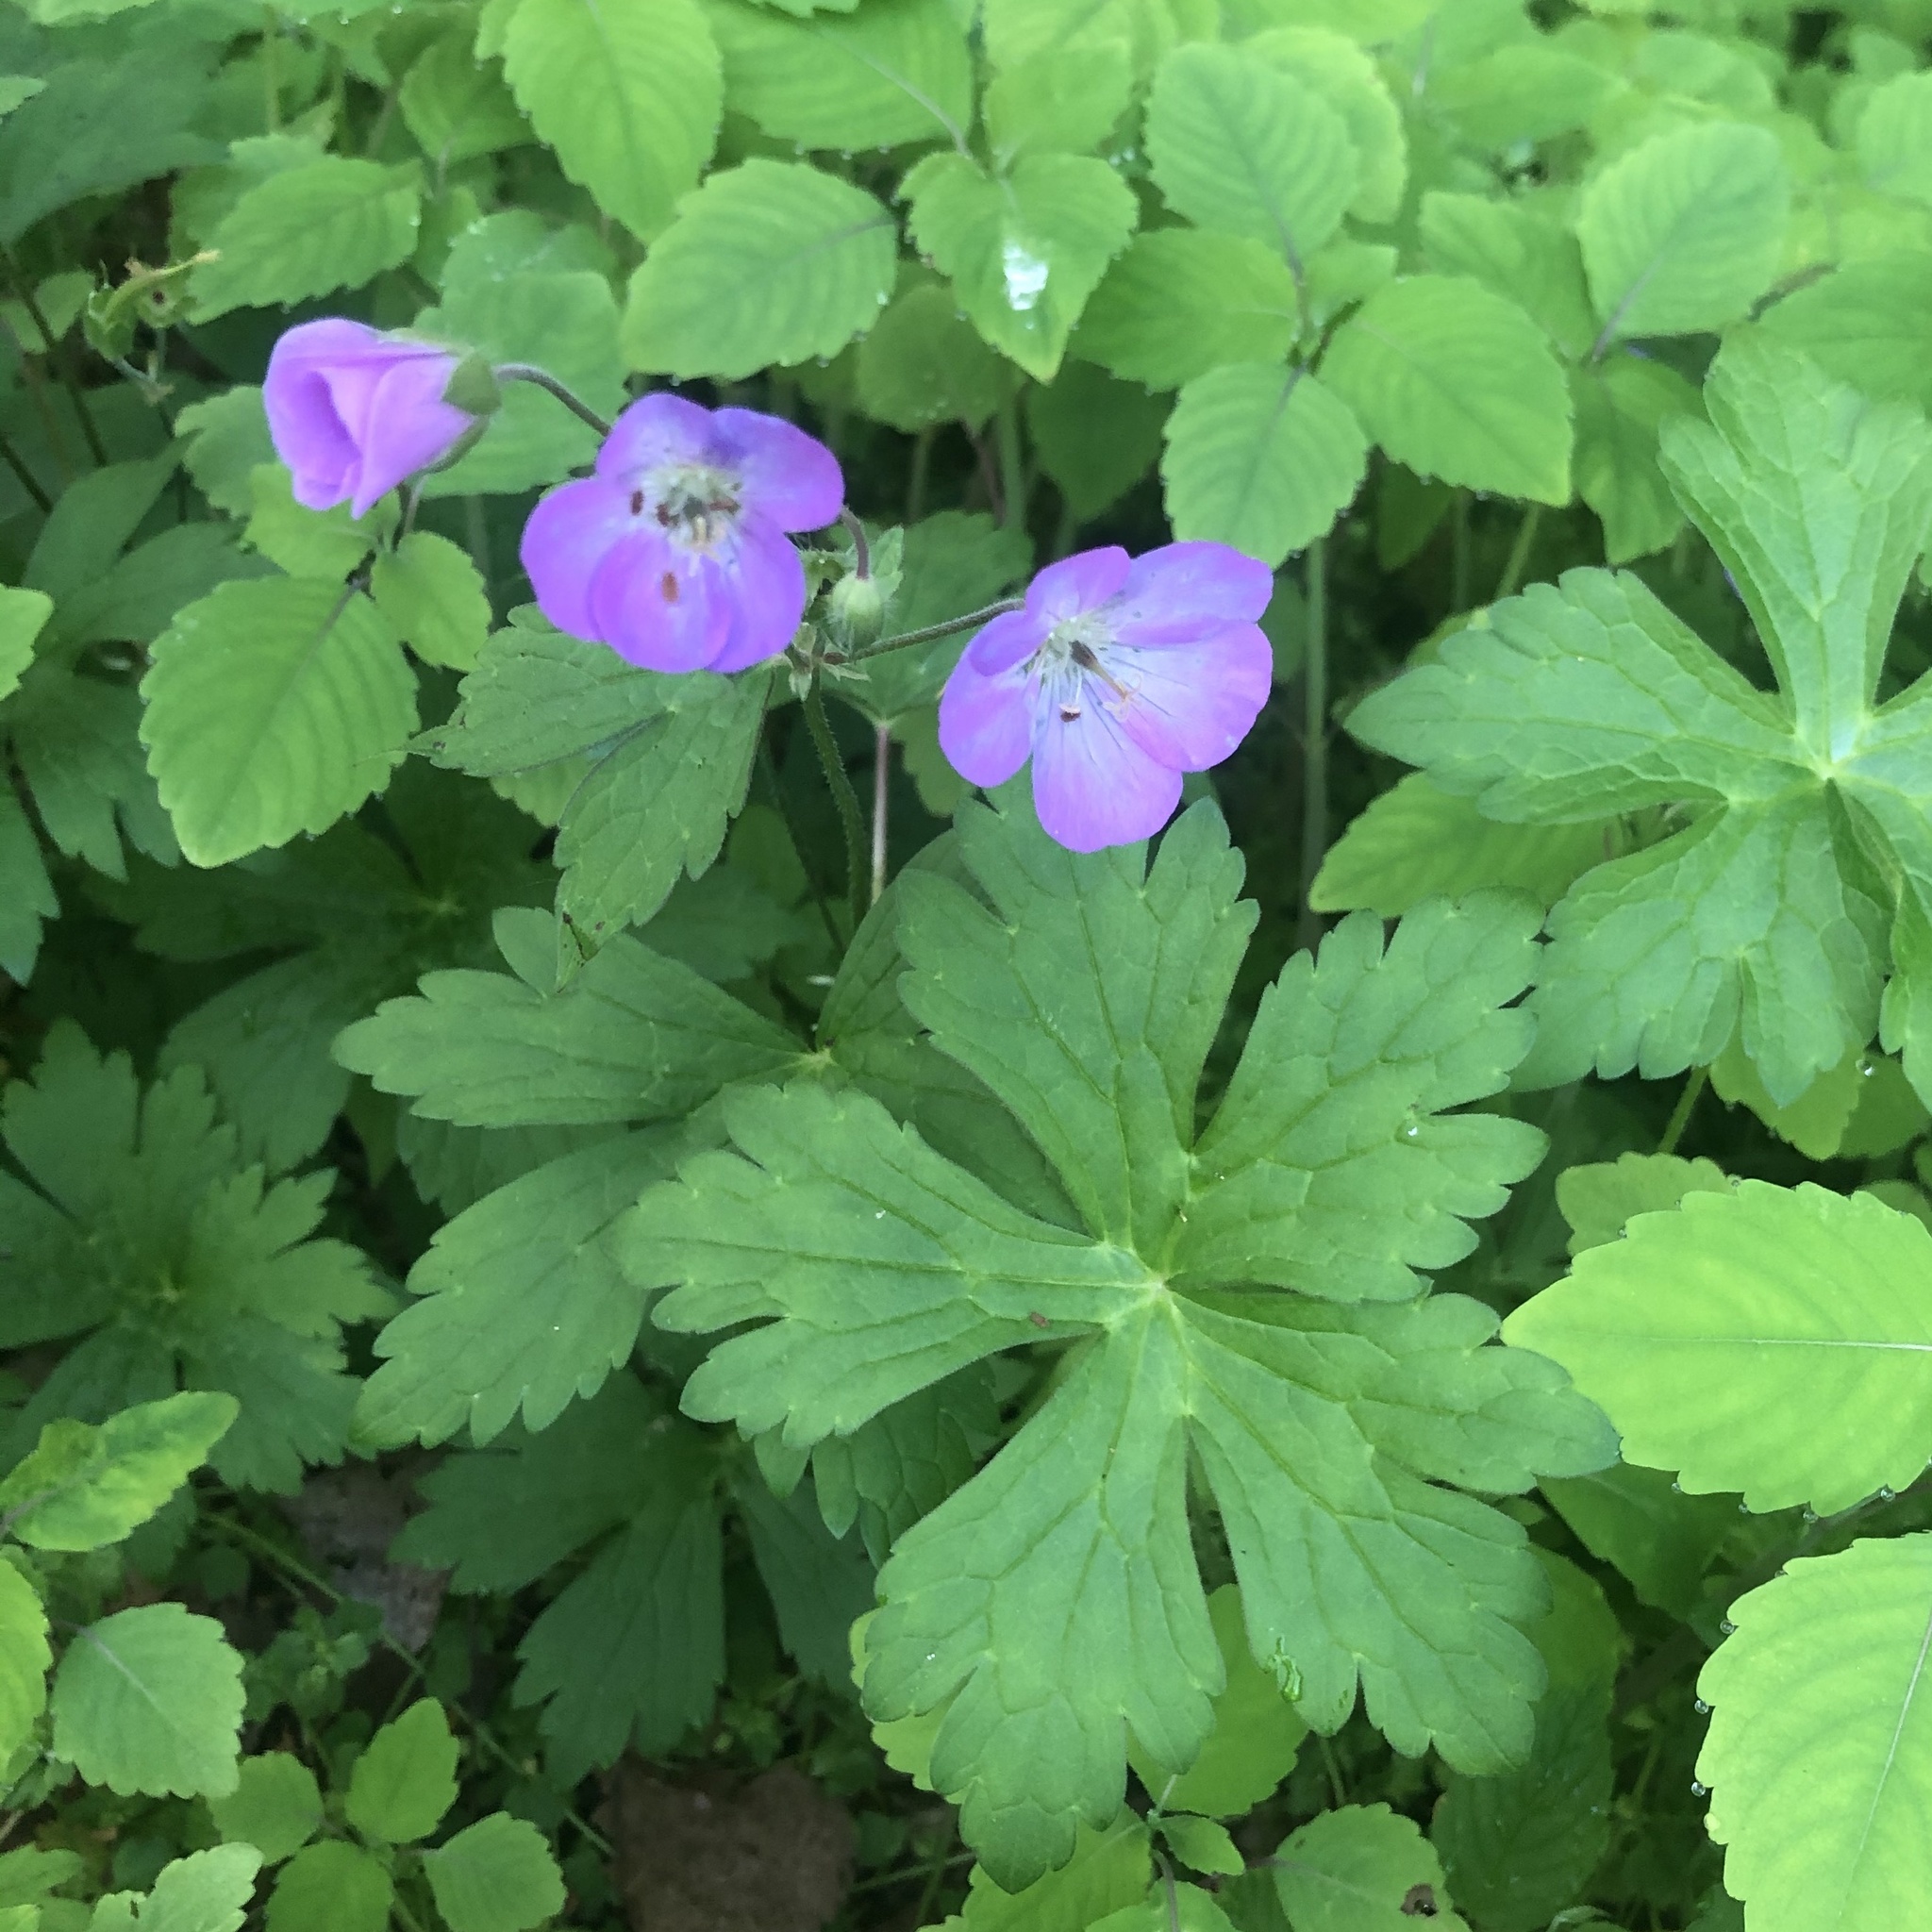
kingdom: Plantae
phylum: Tracheophyta
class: Magnoliopsida
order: Geraniales
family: Geraniaceae
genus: Geranium
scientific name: Geranium maculatum
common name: Spotted geranium
